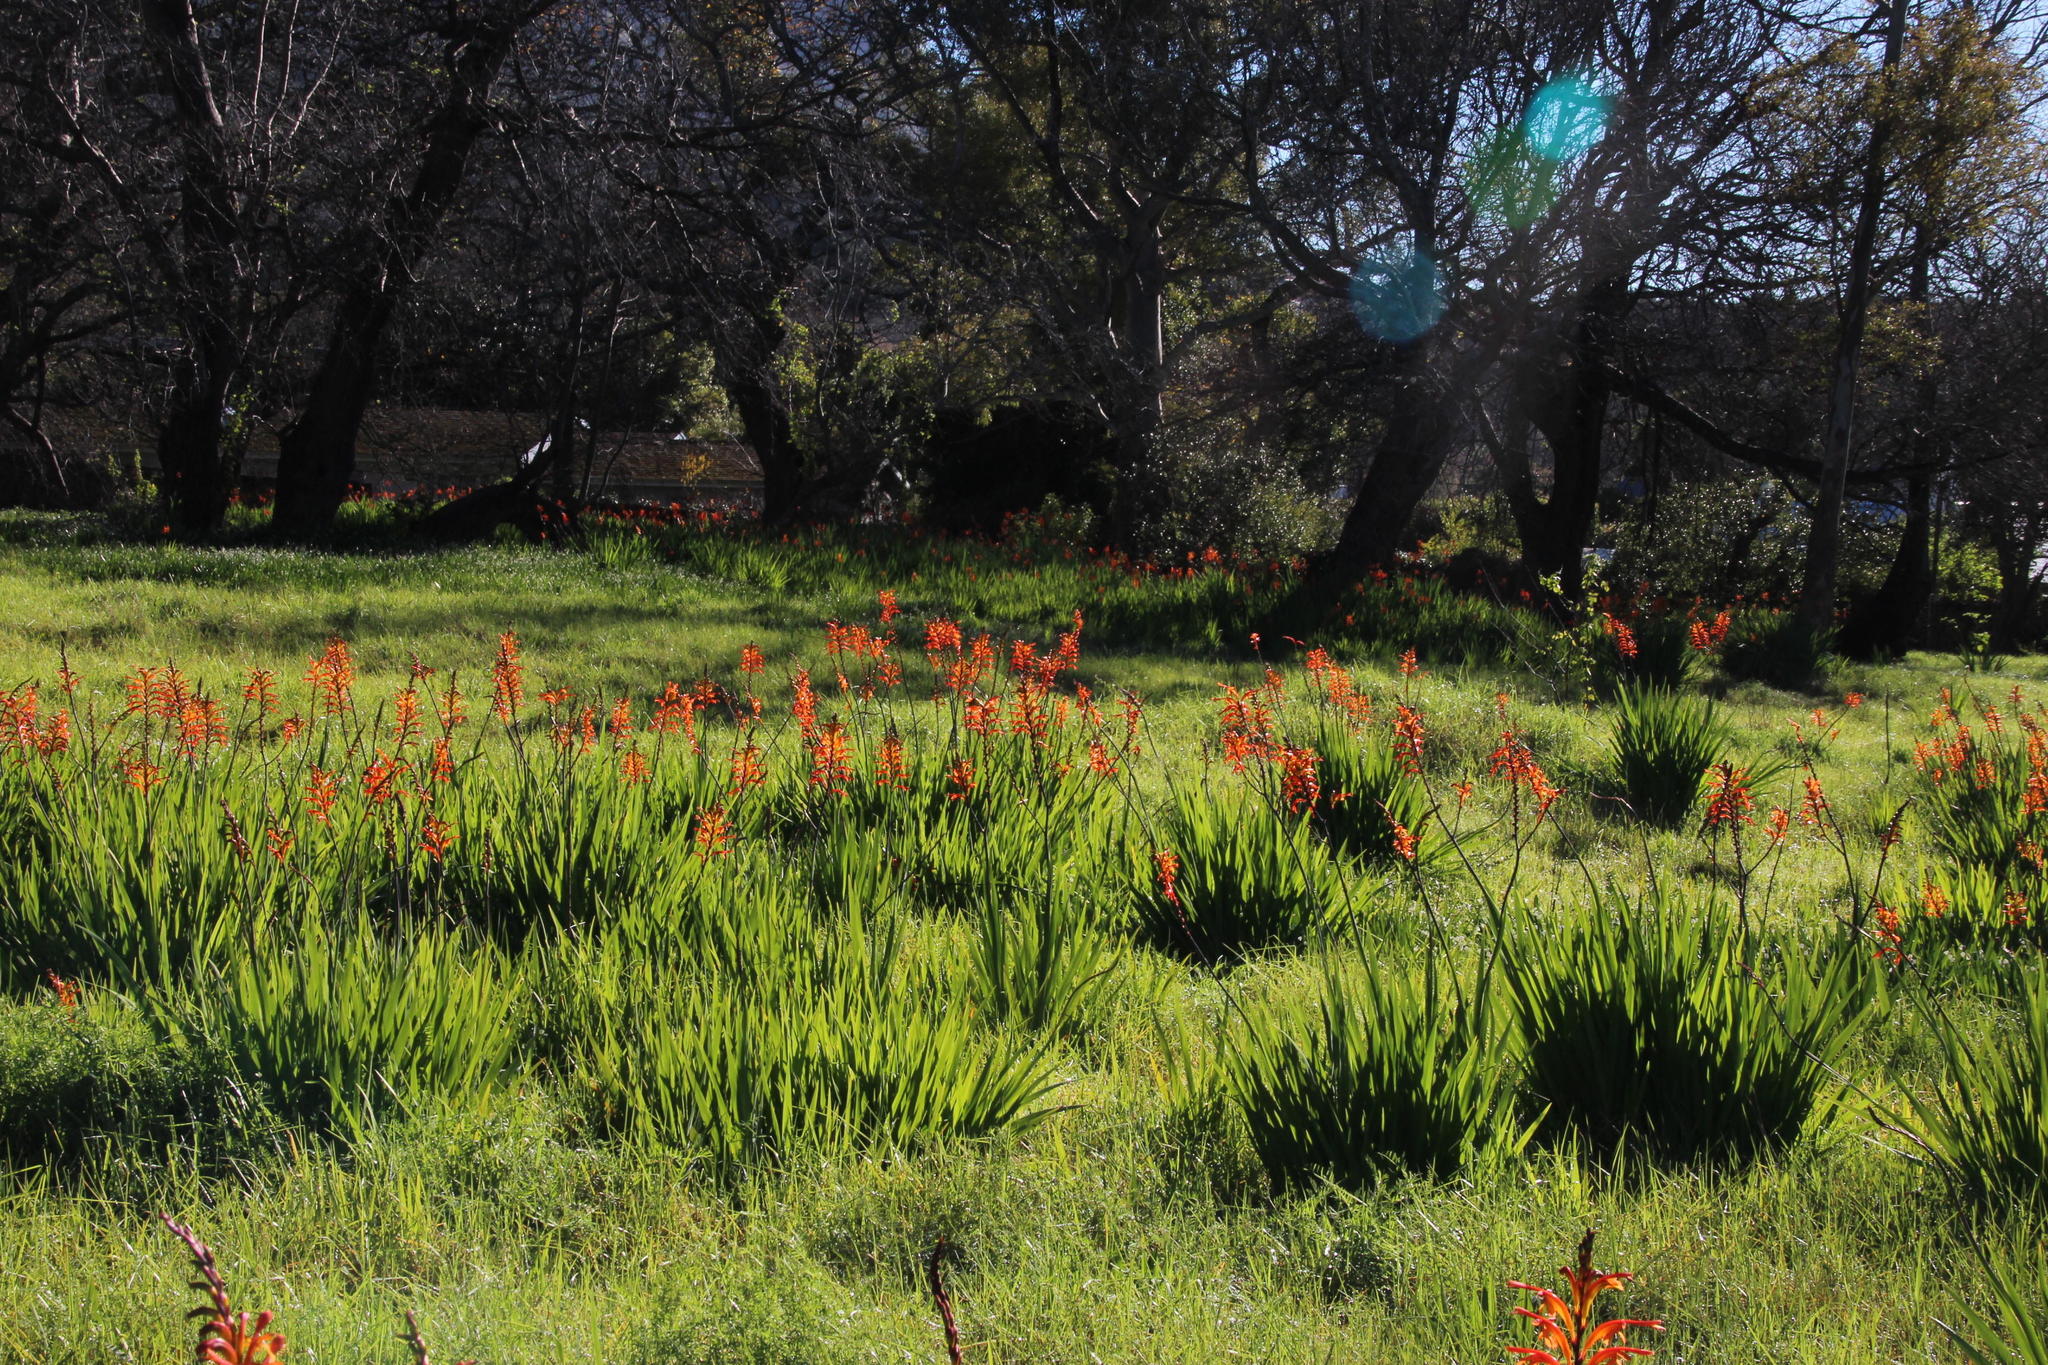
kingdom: Plantae
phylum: Tracheophyta
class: Liliopsida
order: Asparagales
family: Iridaceae
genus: Chasmanthe
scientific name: Chasmanthe floribunda
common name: African cornflag
